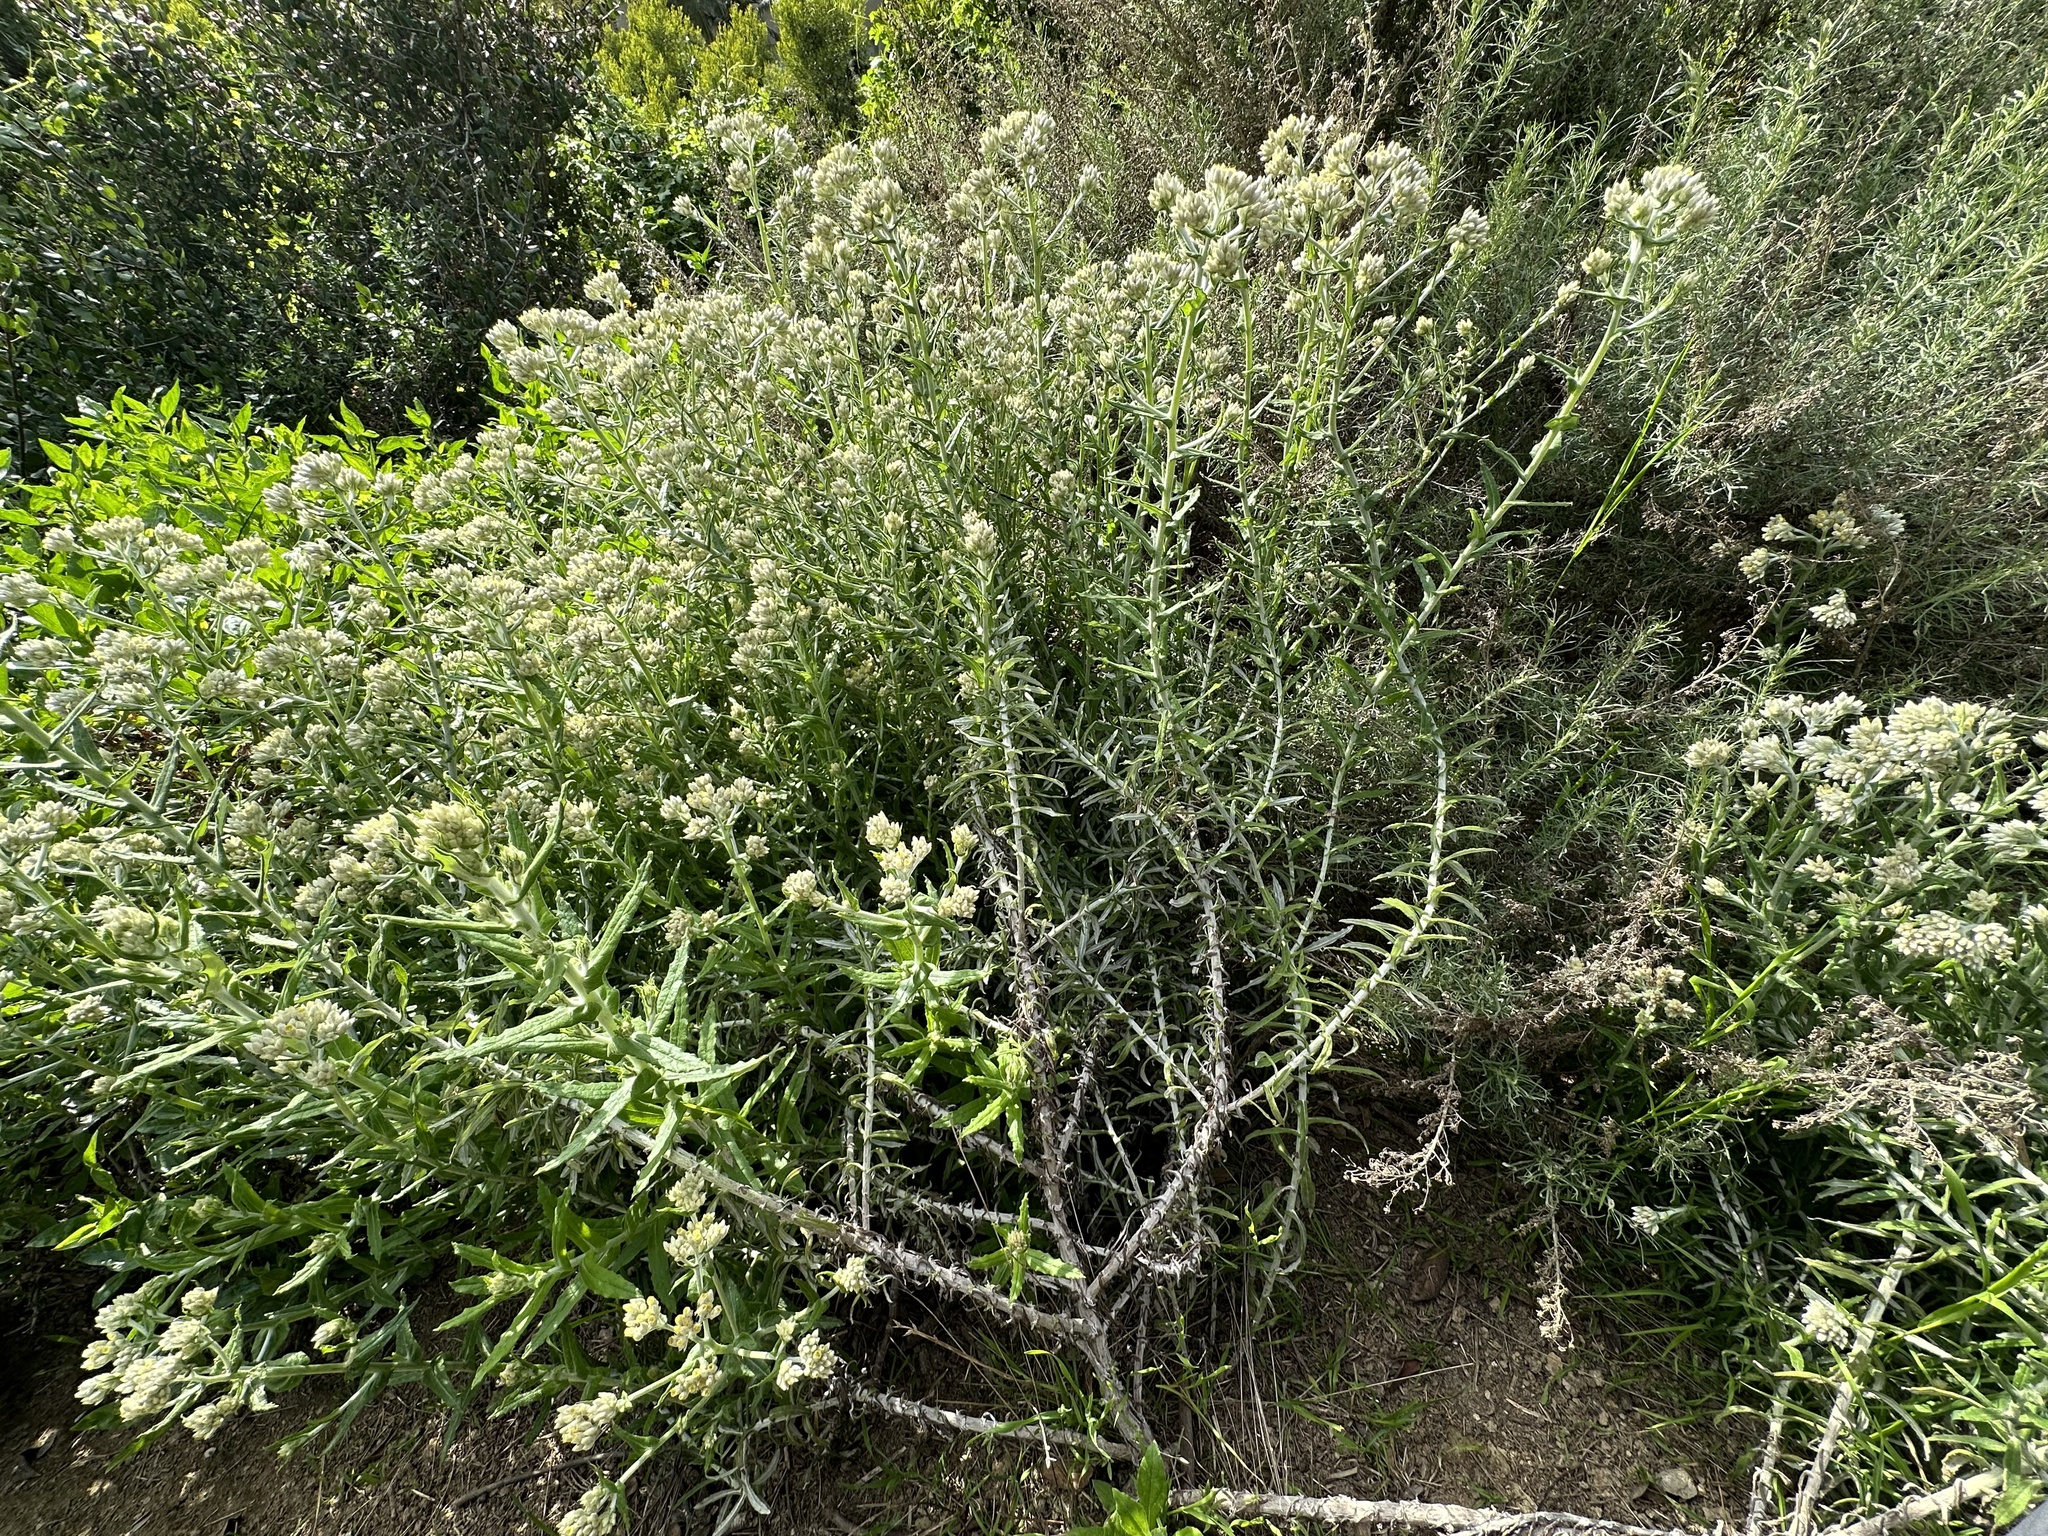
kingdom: Plantae
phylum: Tracheophyta
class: Magnoliopsida
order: Asterales
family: Asteraceae
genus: Pseudognaphalium
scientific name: Pseudognaphalium biolettii
